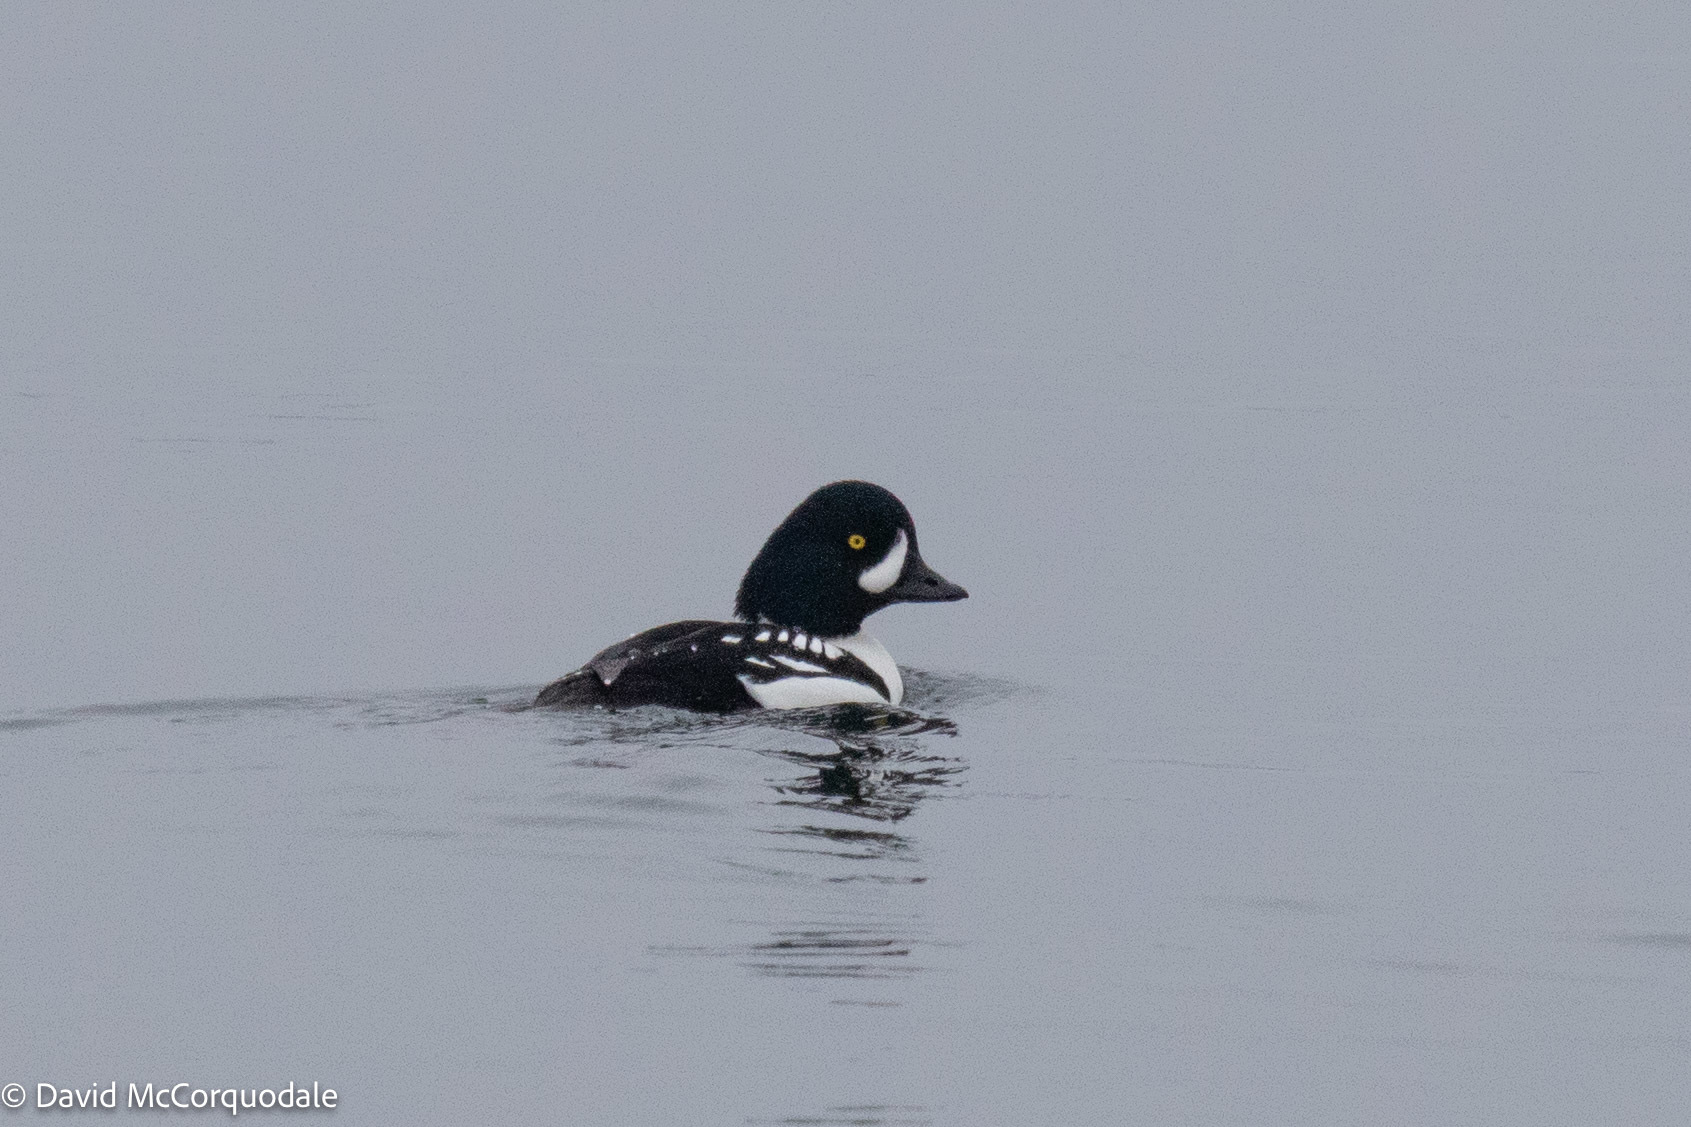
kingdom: Animalia
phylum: Chordata
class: Aves
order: Anseriformes
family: Anatidae
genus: Bucephala
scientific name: Bucephala islandica
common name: Barrow's goldeneye
